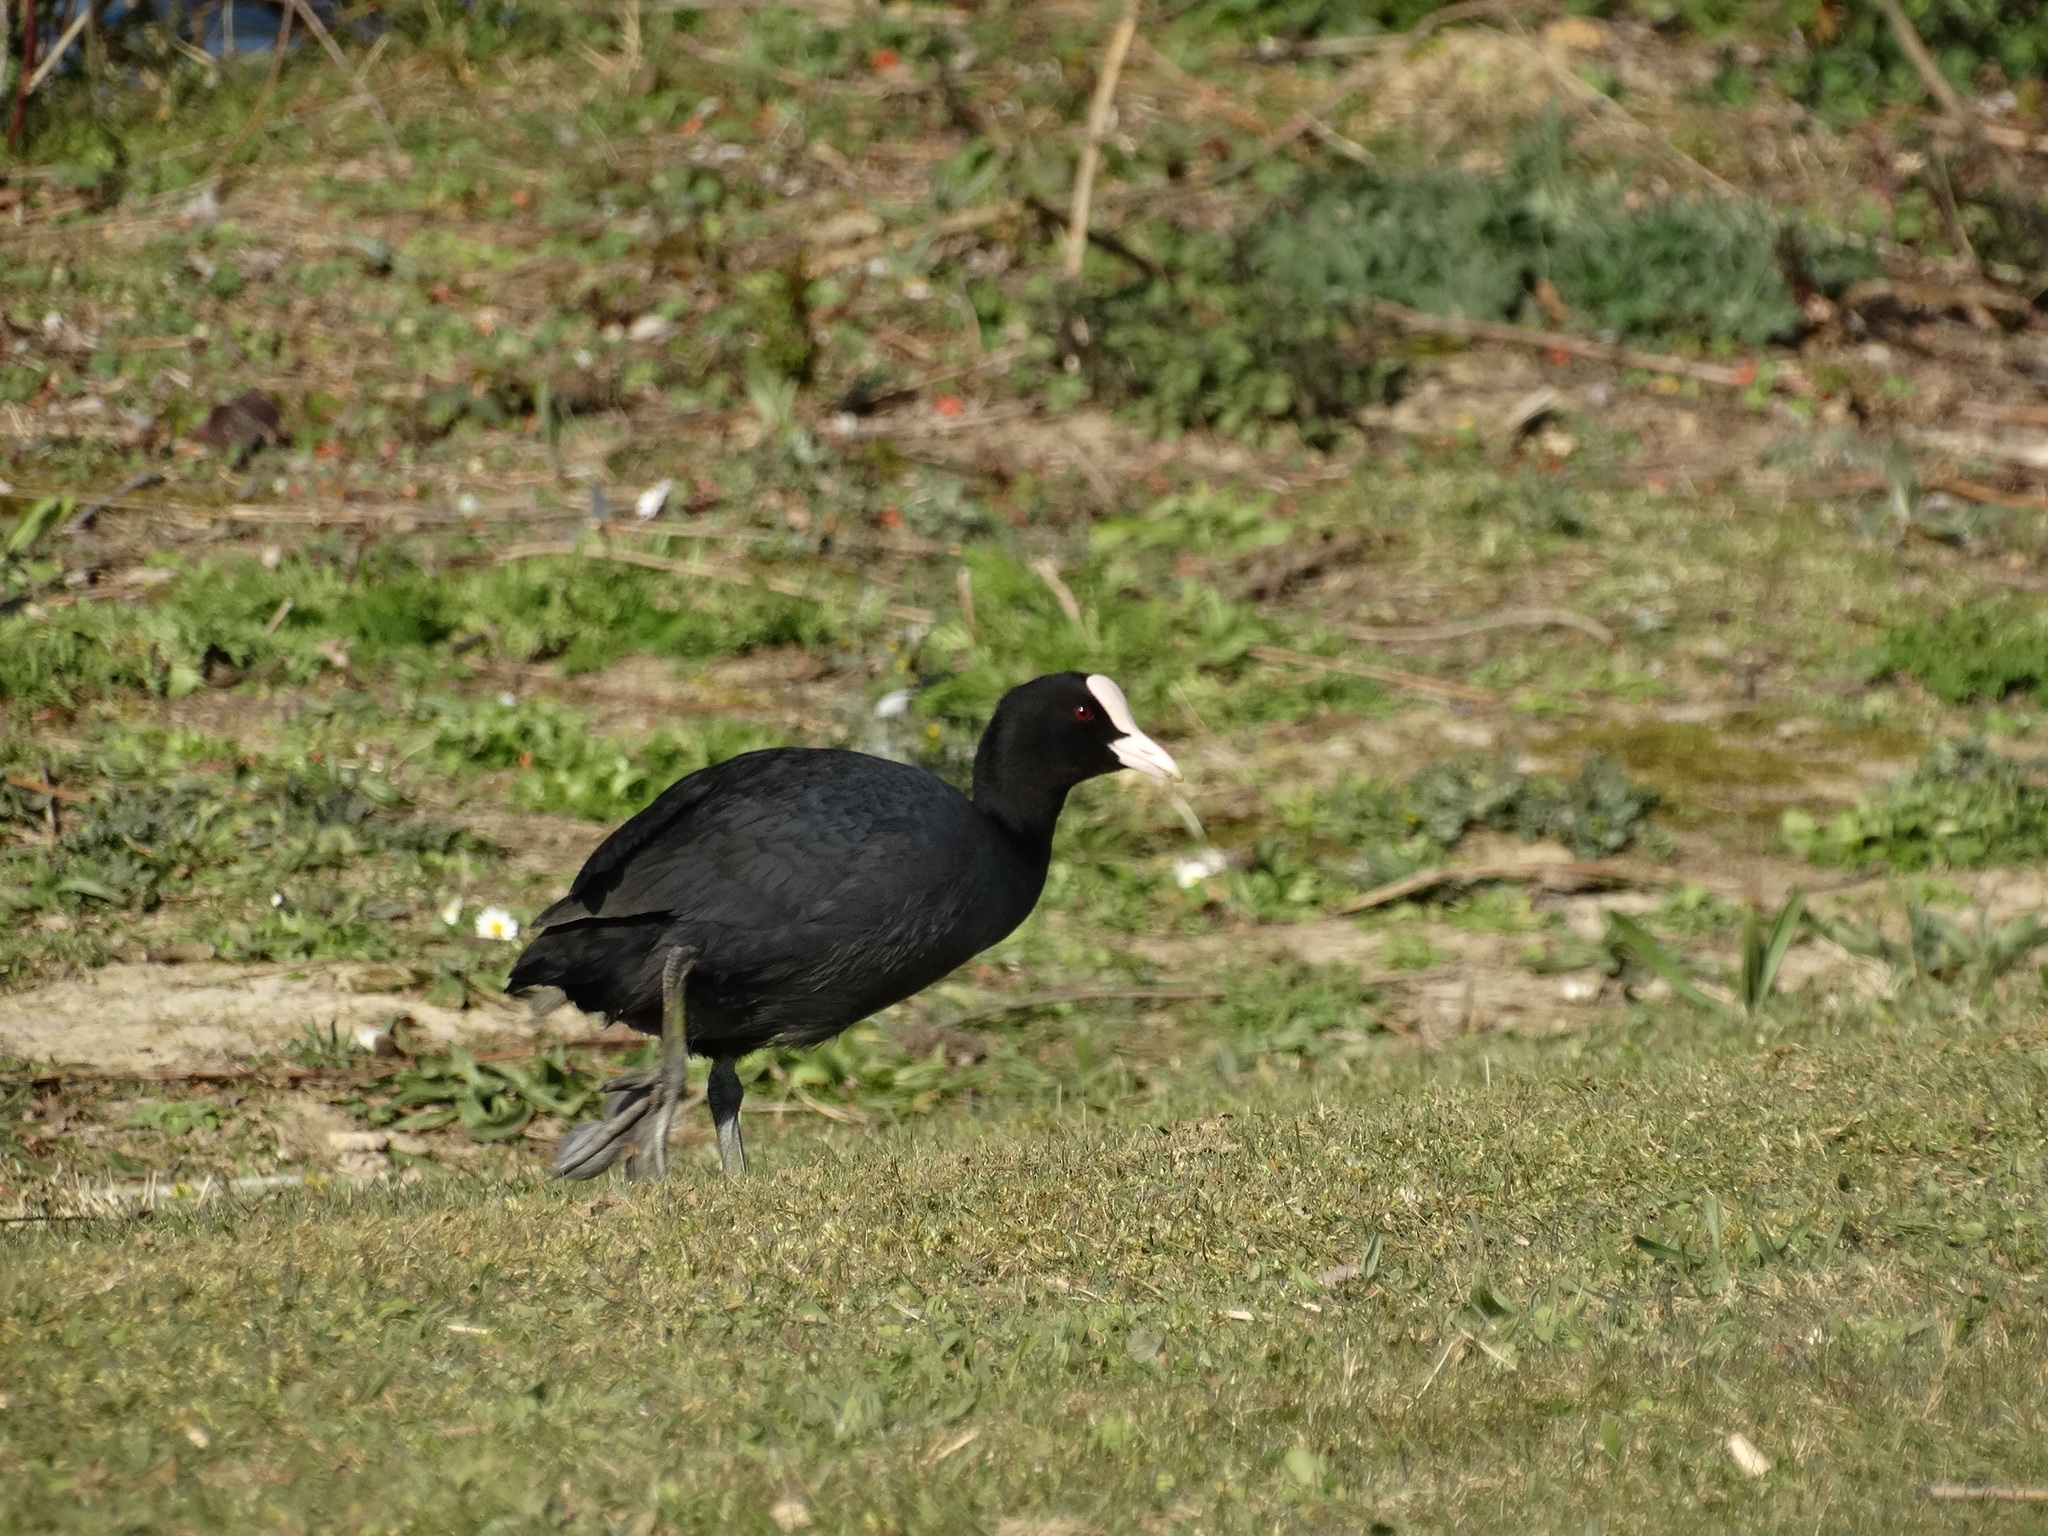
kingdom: Animalia
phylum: Chordata
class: Aves
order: Gruiformes
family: Rallidae
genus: Fulica
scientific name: Fulica atra
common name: Eurasian coot
